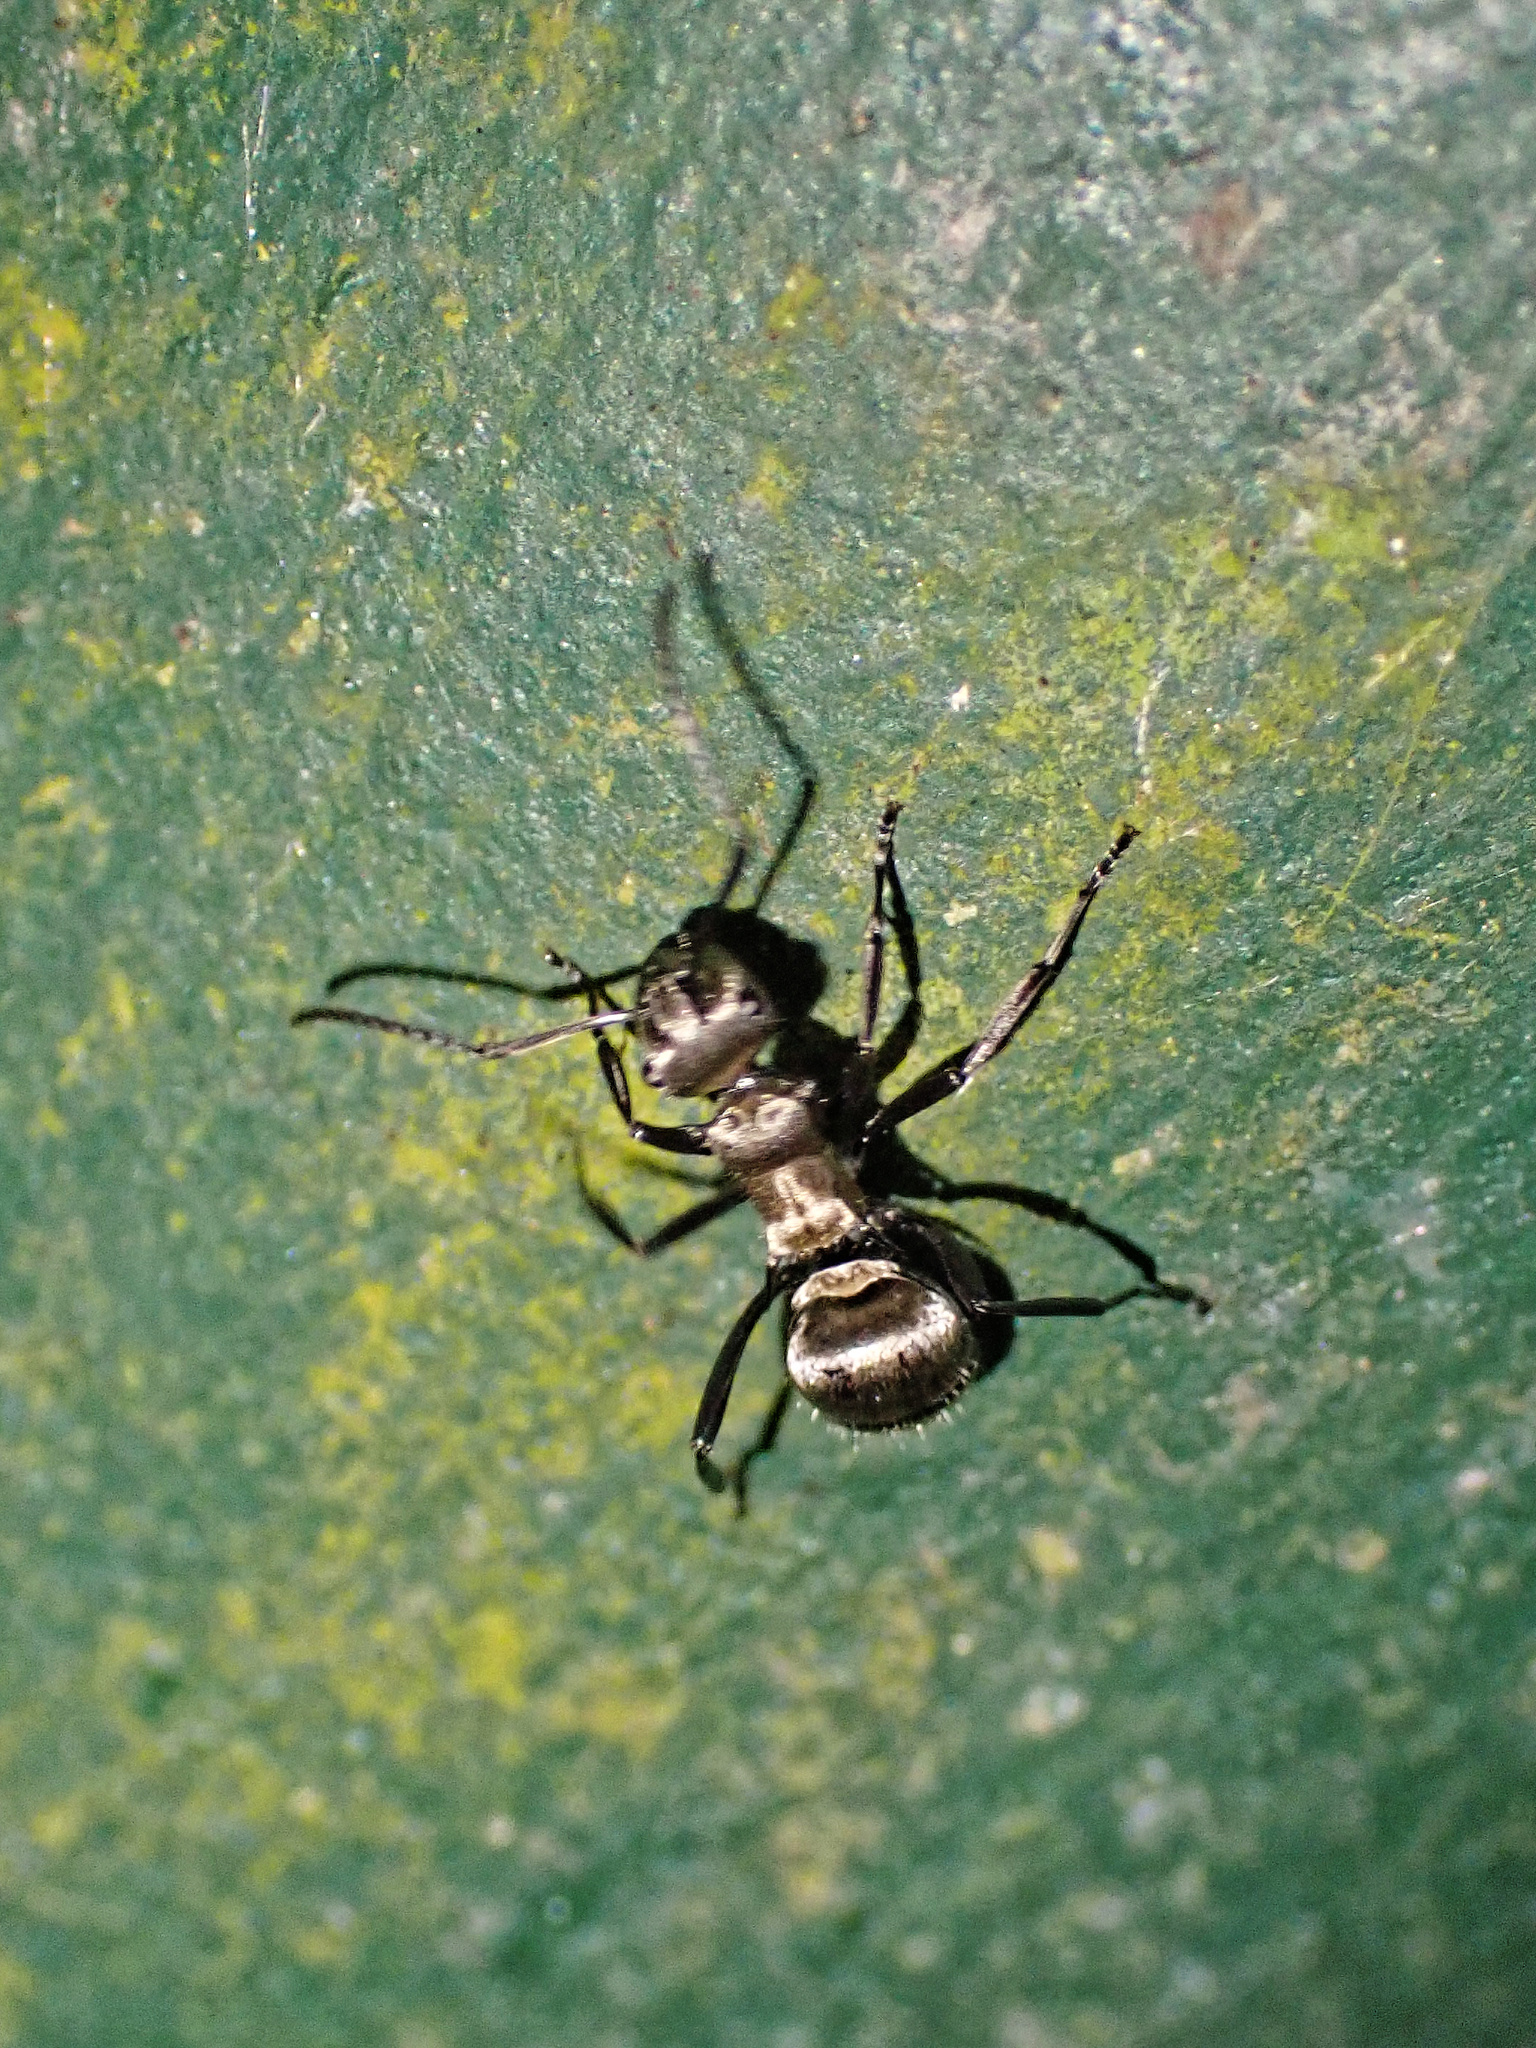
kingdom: Animalia
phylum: Arthropoda
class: Insecta
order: Hymenoptera
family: Formicidae
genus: Polyrhachis
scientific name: Polyrhachis cupreata
